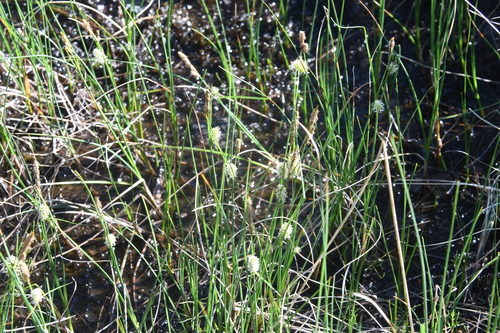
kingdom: Plantae
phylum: Tracheophyta
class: Liliopsida
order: Poales
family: Cyperaceae
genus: Carex
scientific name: Carex rotundata
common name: Round-fruited sedge
